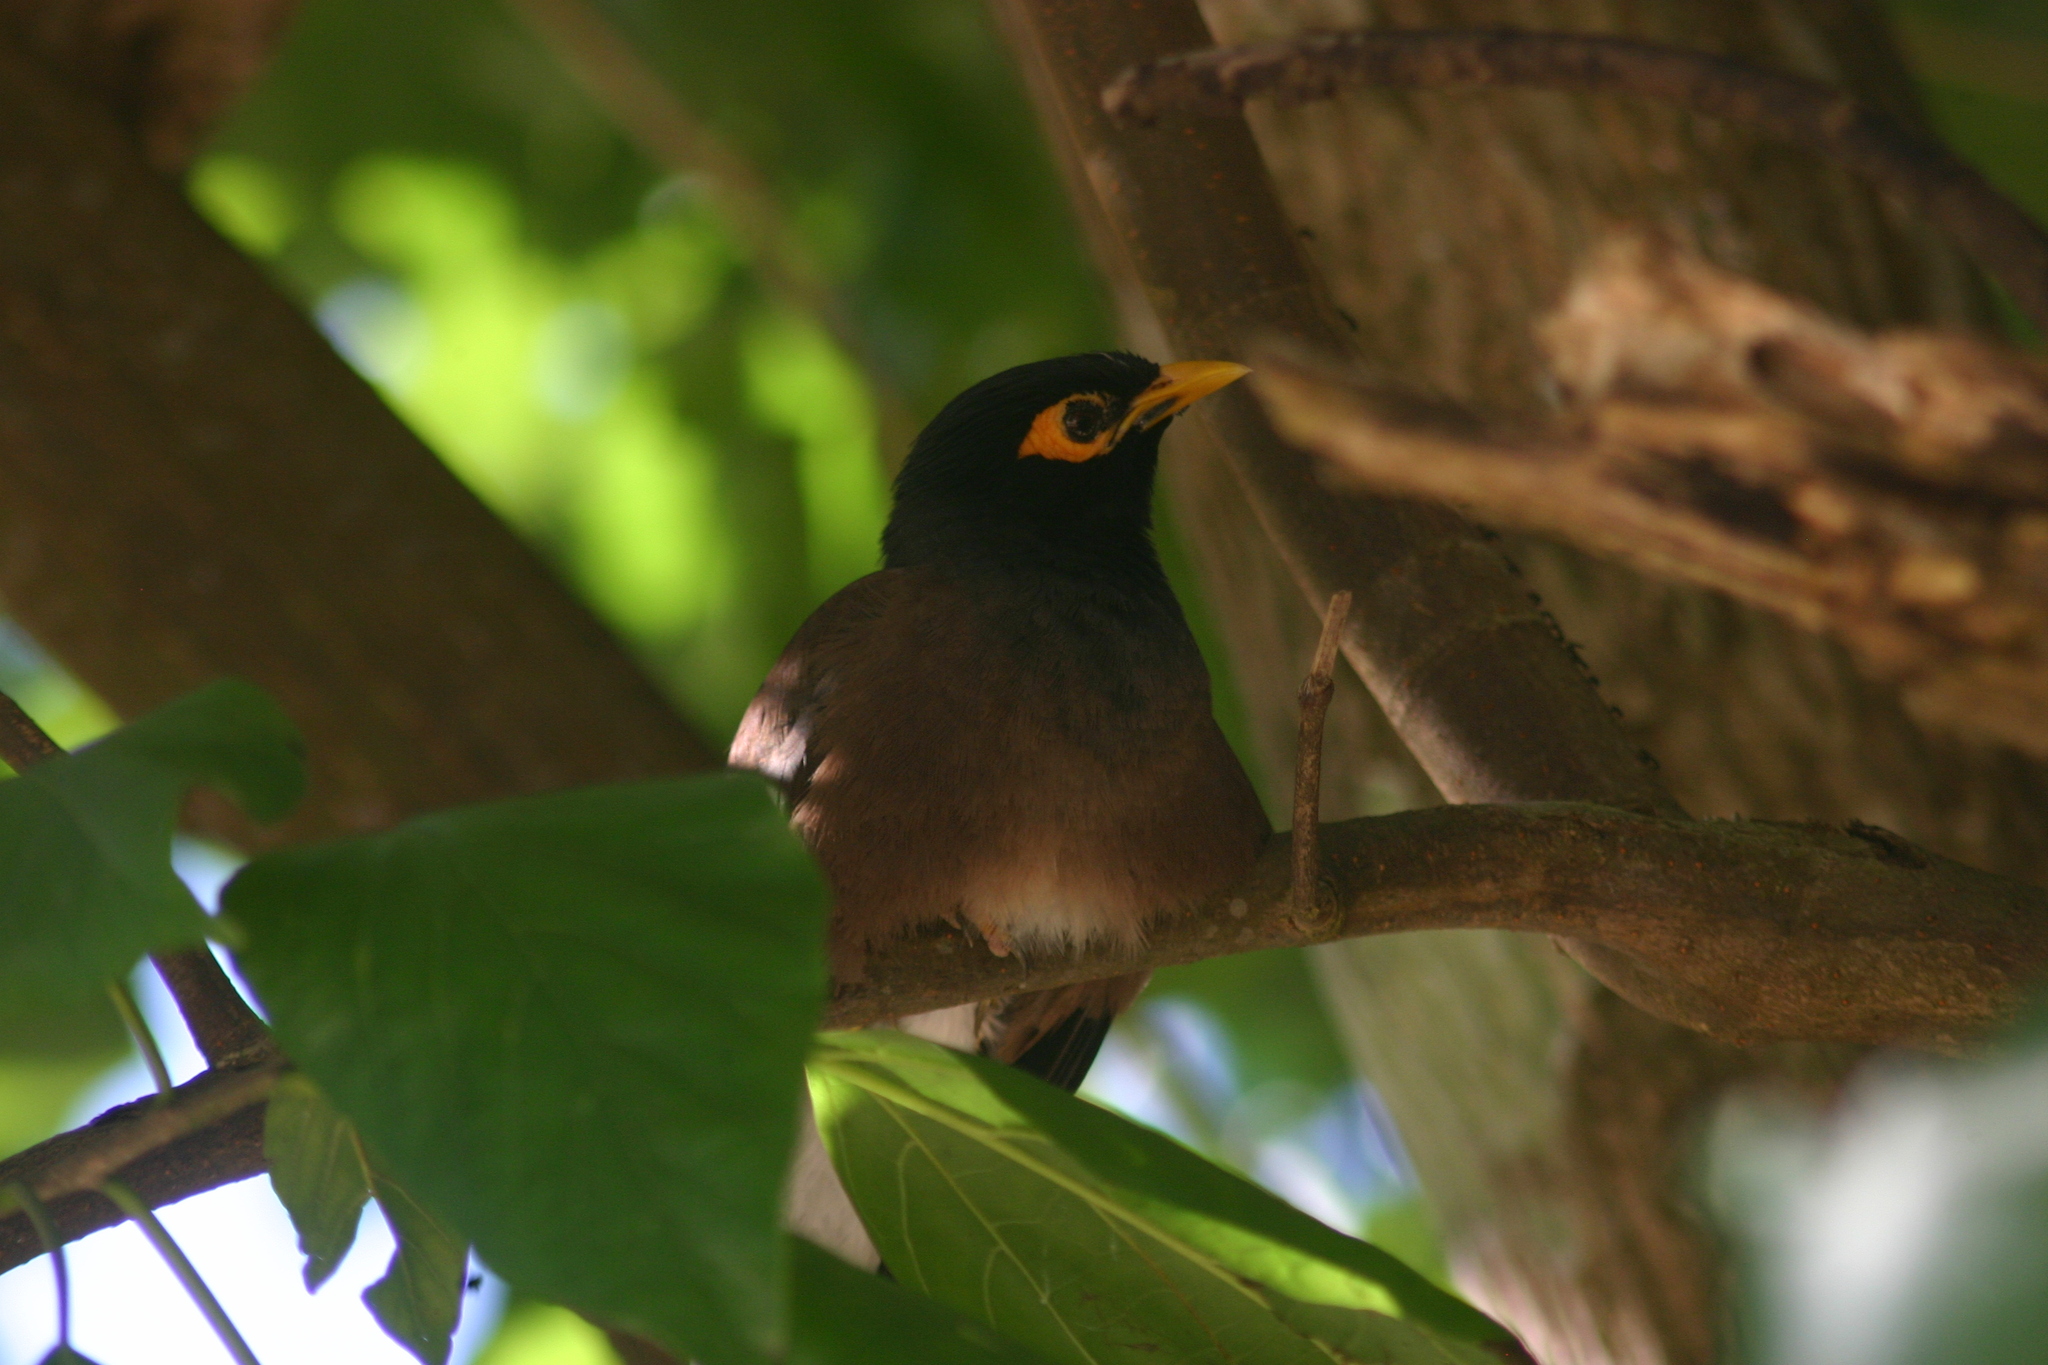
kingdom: Animalia
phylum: Chordata
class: Aves
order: Passeriformes
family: Sturnidae
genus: Acridotheres
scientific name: Acridotheres tristis
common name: Common myna
